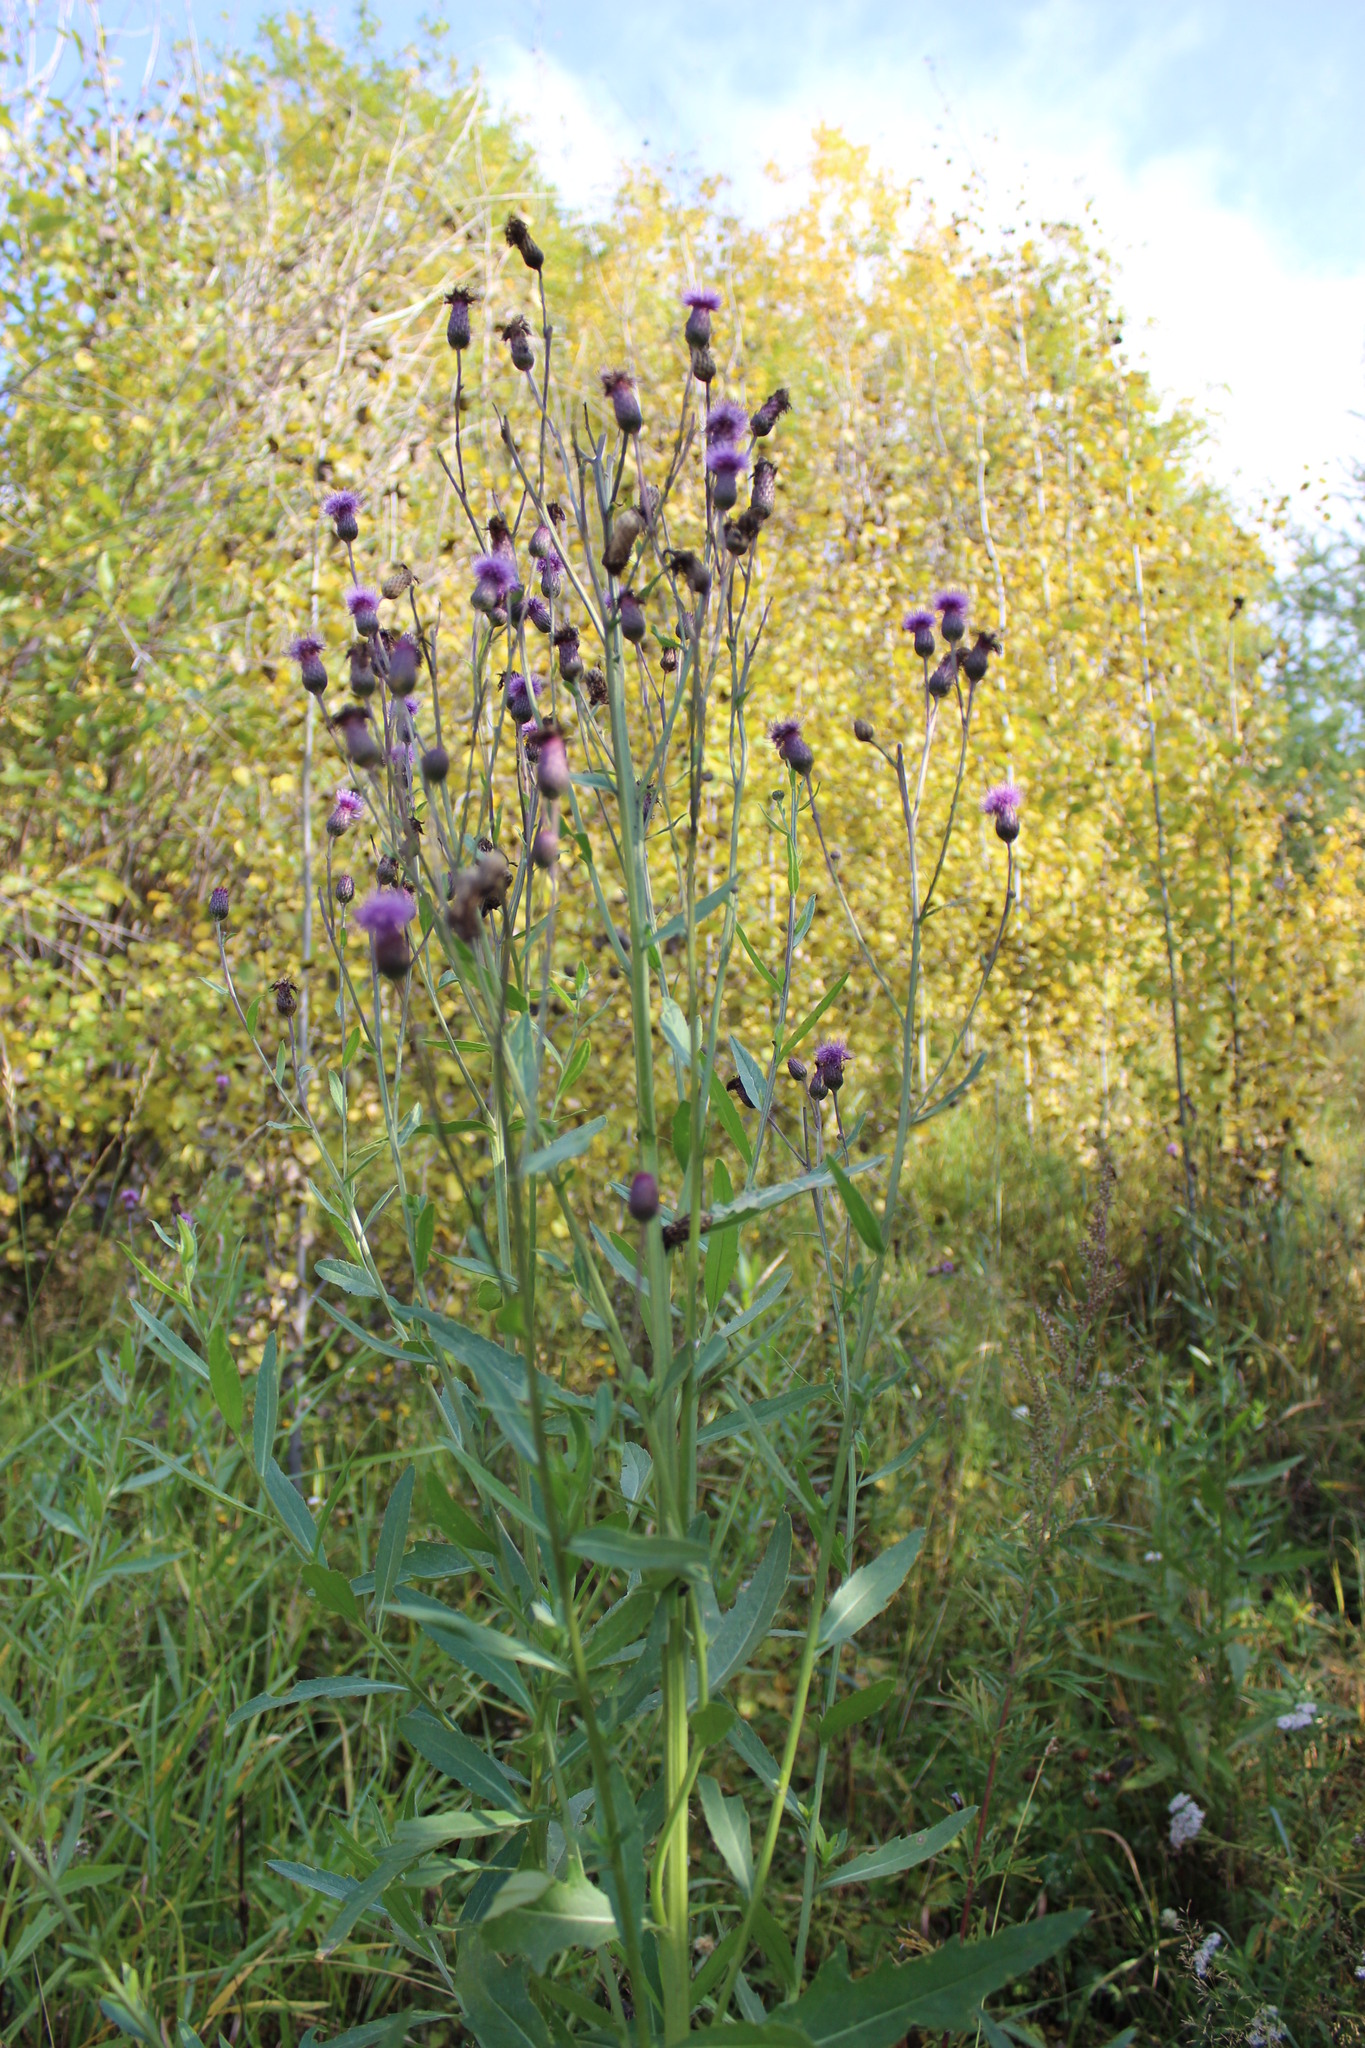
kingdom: Plantae
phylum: Tracheophyta
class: Magnoliopsida
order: Asterales
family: Asteraceae
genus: Cirsium
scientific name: Cirsium arvense
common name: Creeping thistle
